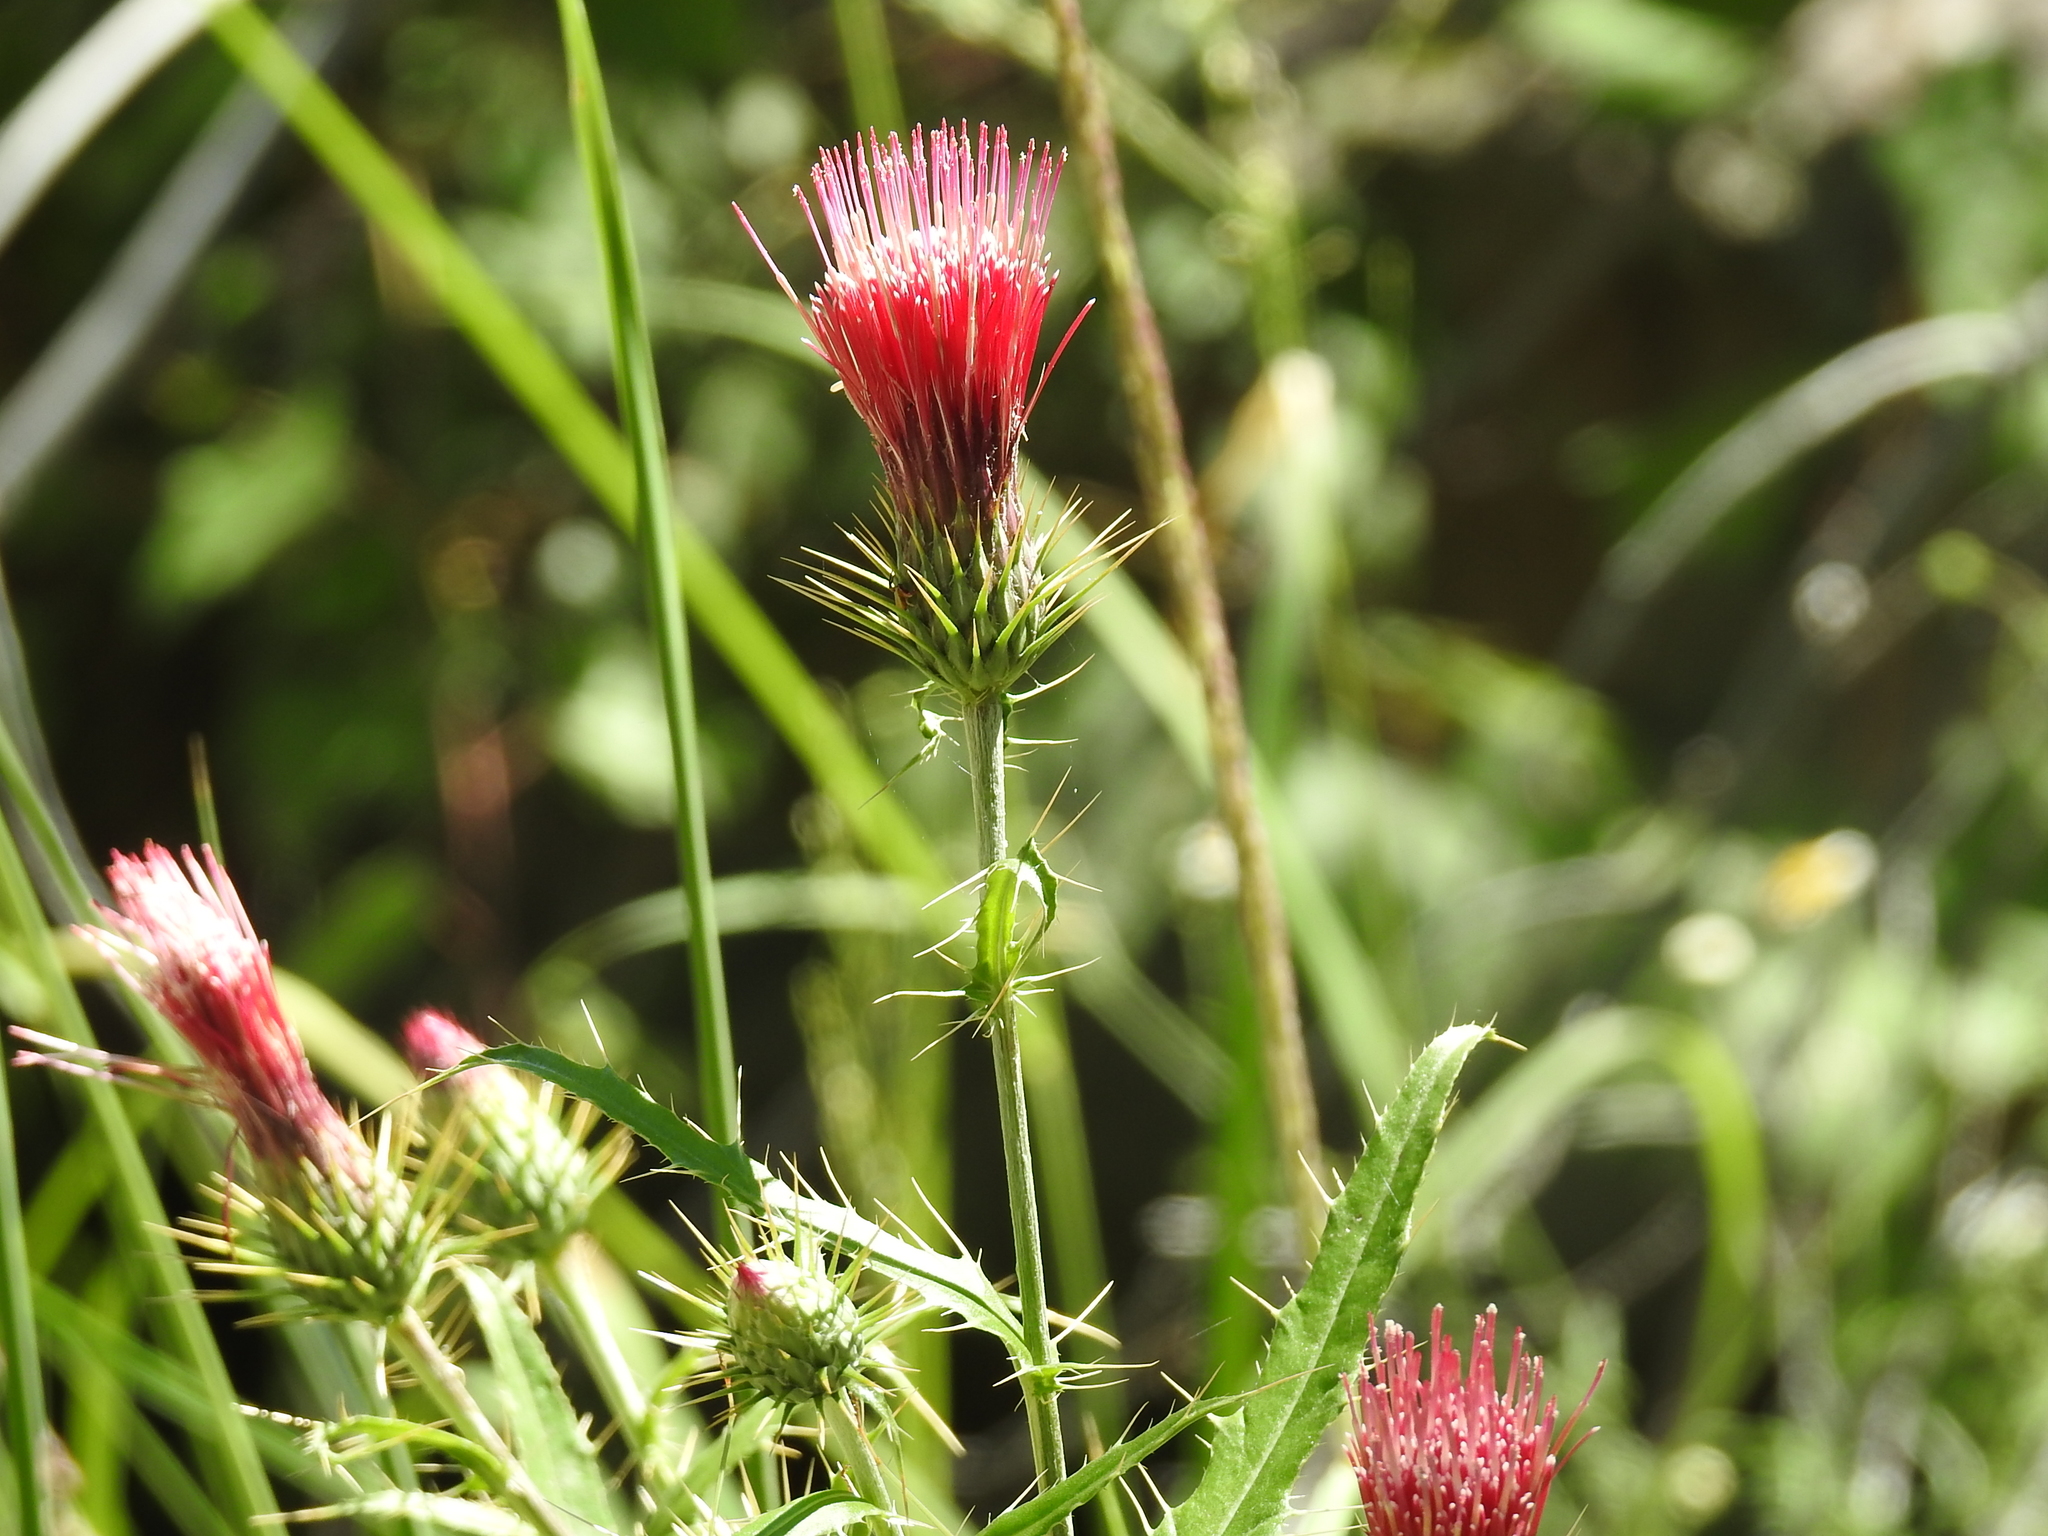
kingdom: Plantae
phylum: Tracheophyta
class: Magnoliopsida
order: Asterales
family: Asteraceae
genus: Cirsium
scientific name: Cirsium arizonicum
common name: Arizona thistle
